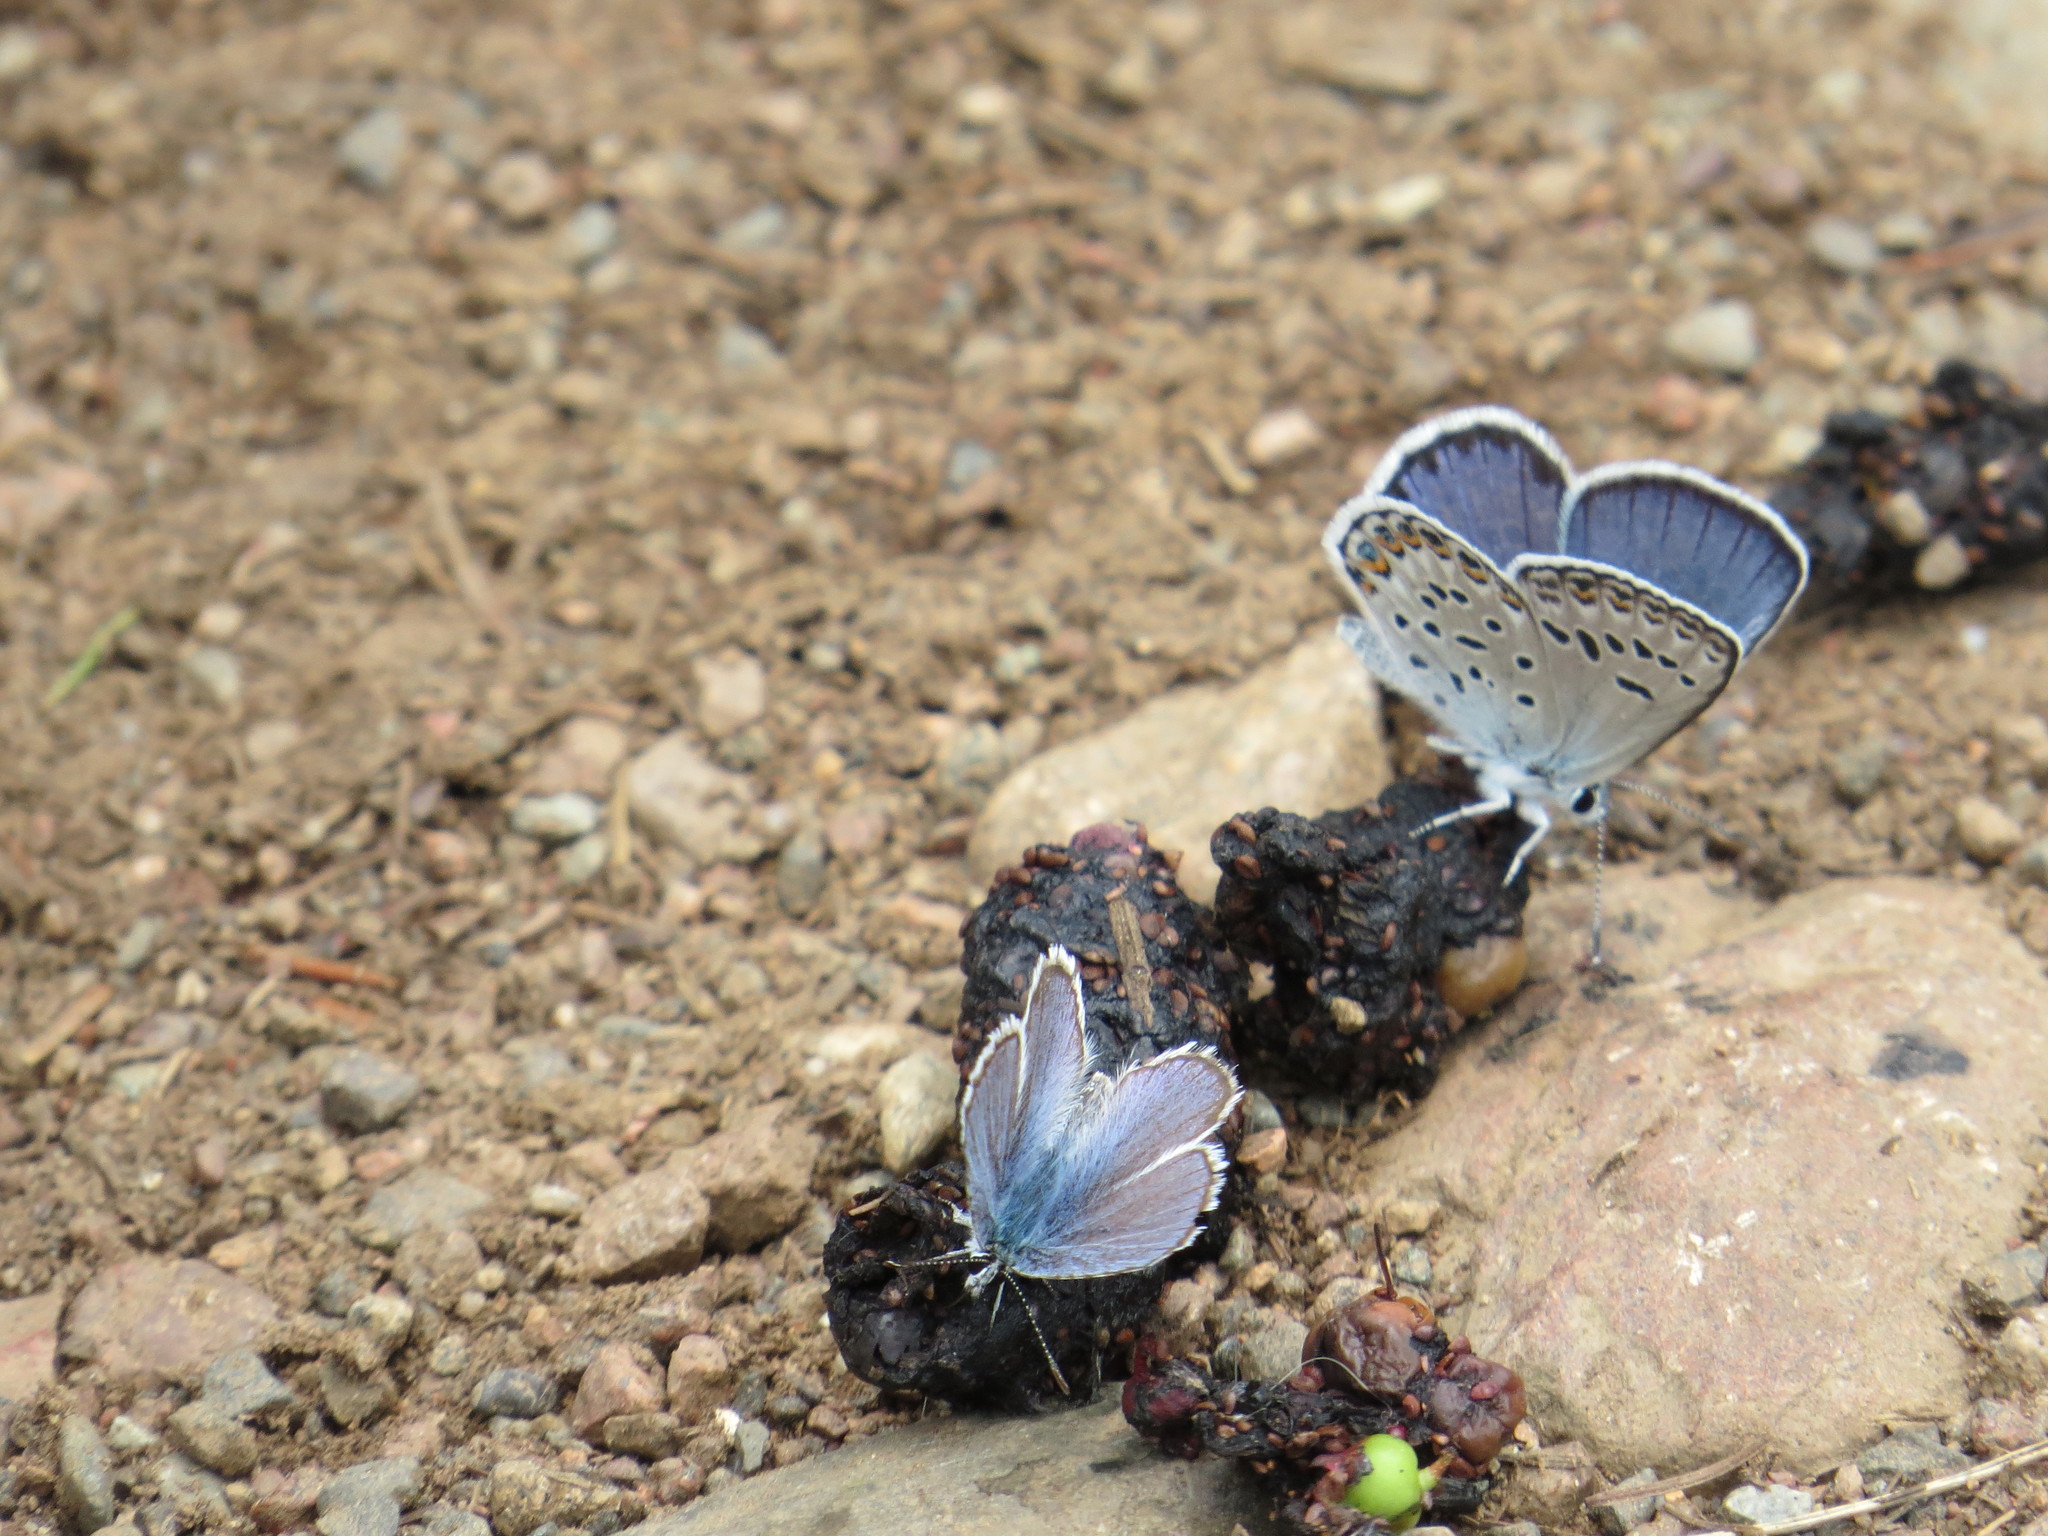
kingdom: Animalia
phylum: Arthropoda
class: Insecta
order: Lepidoptera
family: Lycaenidae
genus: Lycaeides
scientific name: Lycaeides idas
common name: Northern blue
